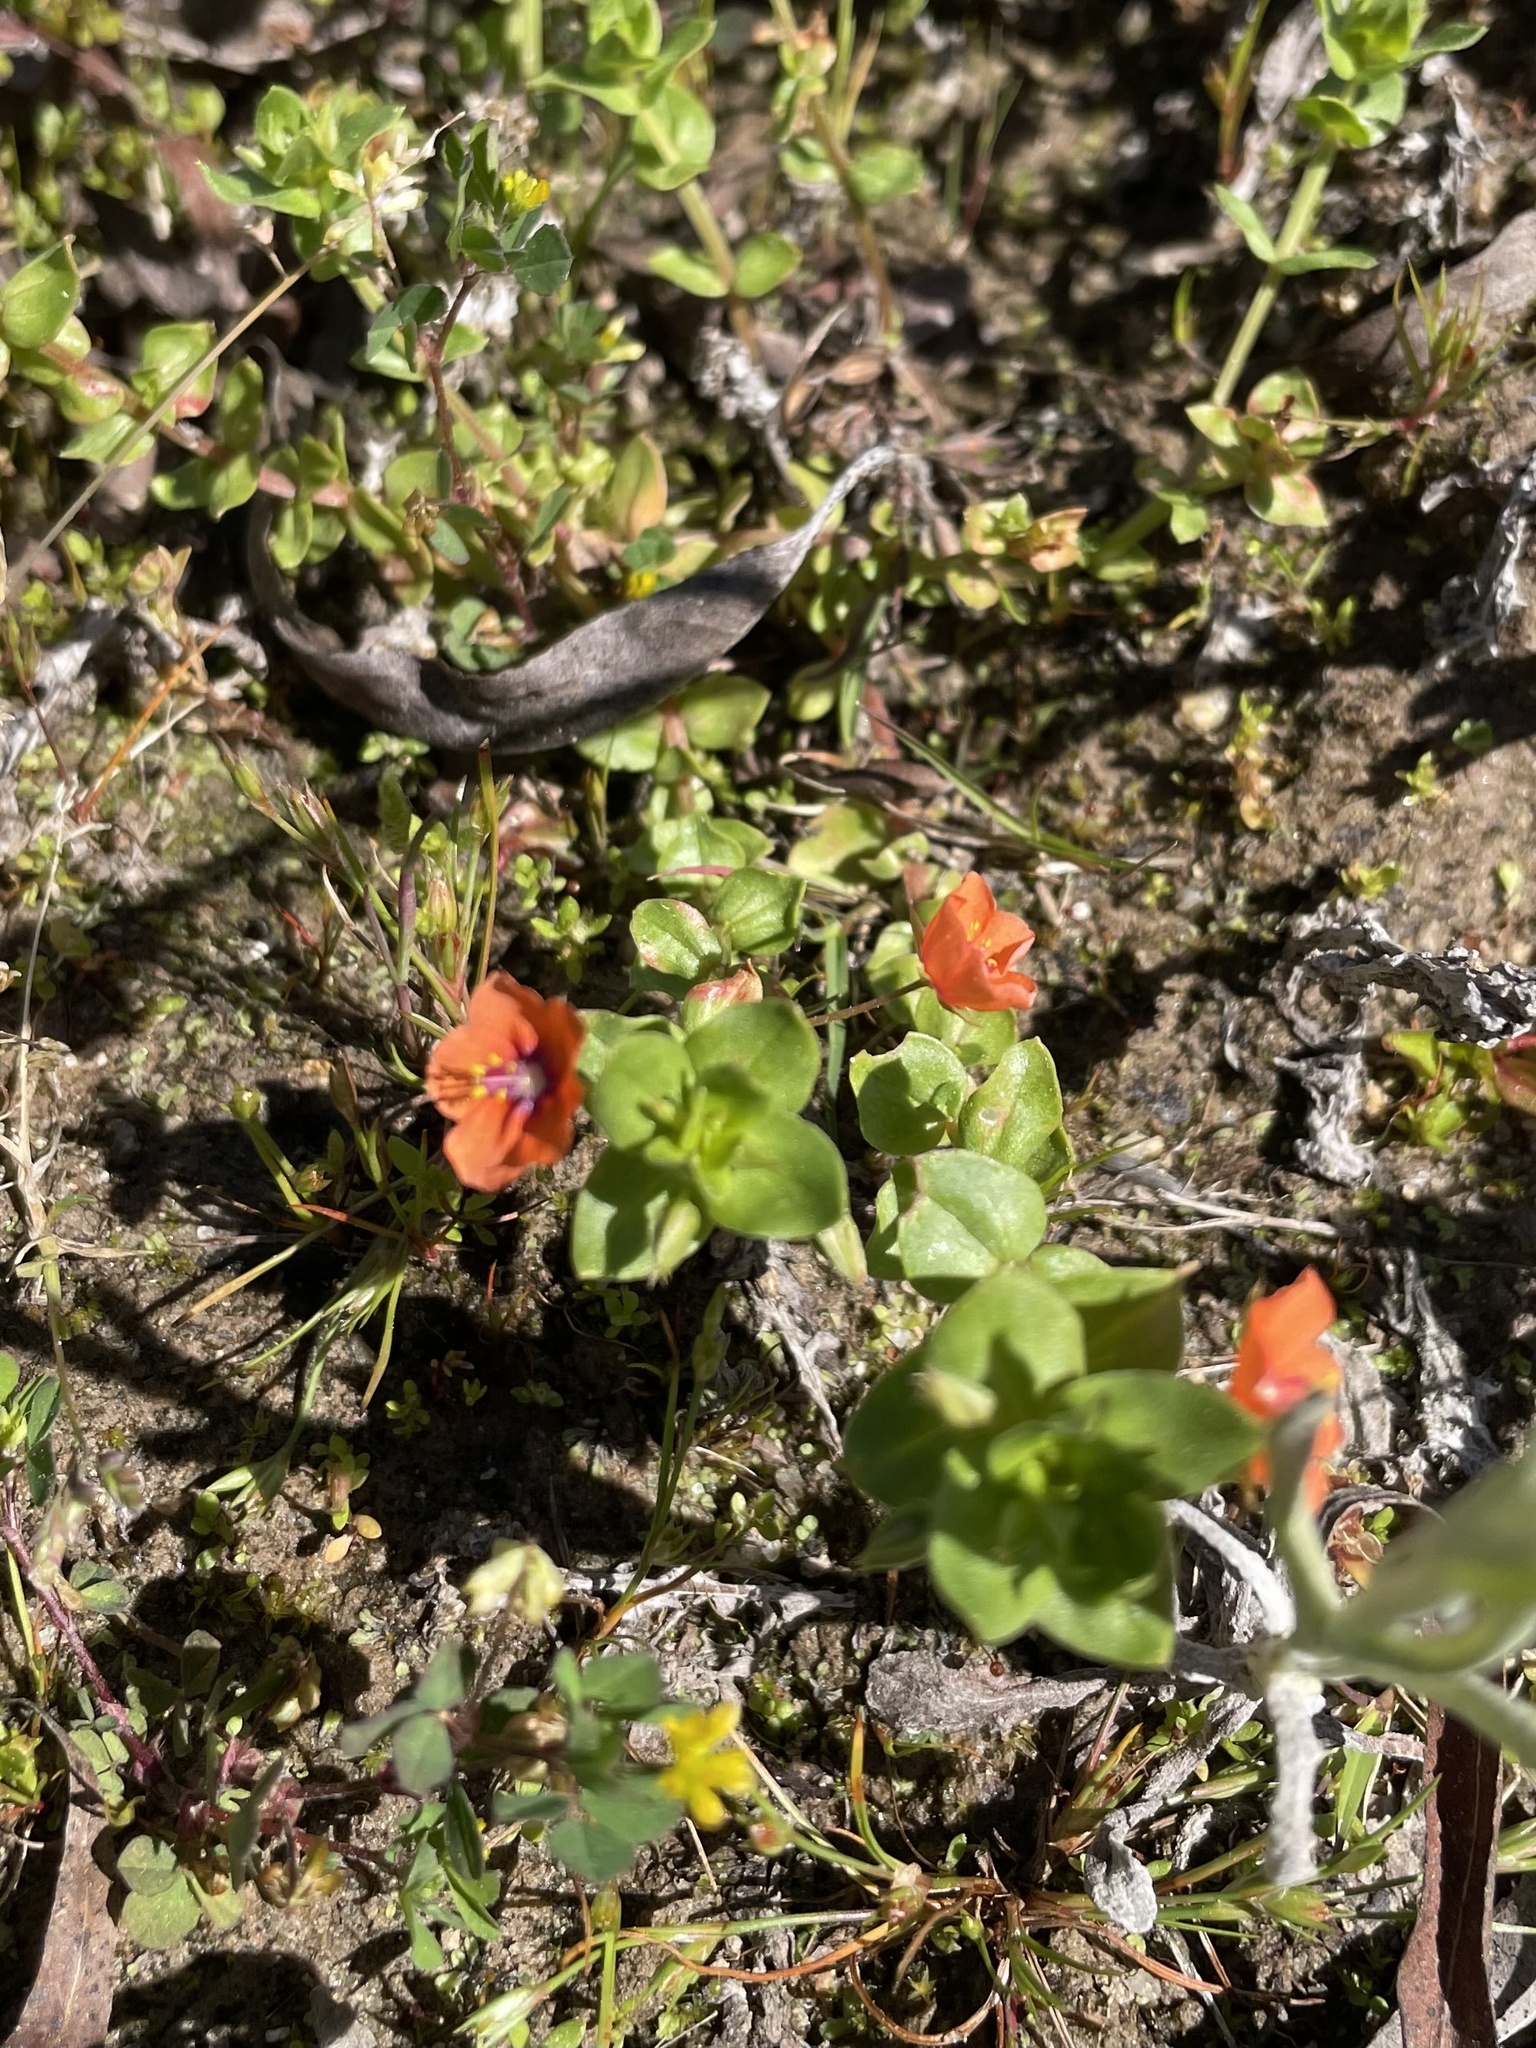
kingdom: Plantae
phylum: Tracheophyta
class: Magnoliopsida
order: Ericales
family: Primulaceae
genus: Lysimachia
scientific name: Lysimachia arvensis
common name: Scarlet pimpernel
